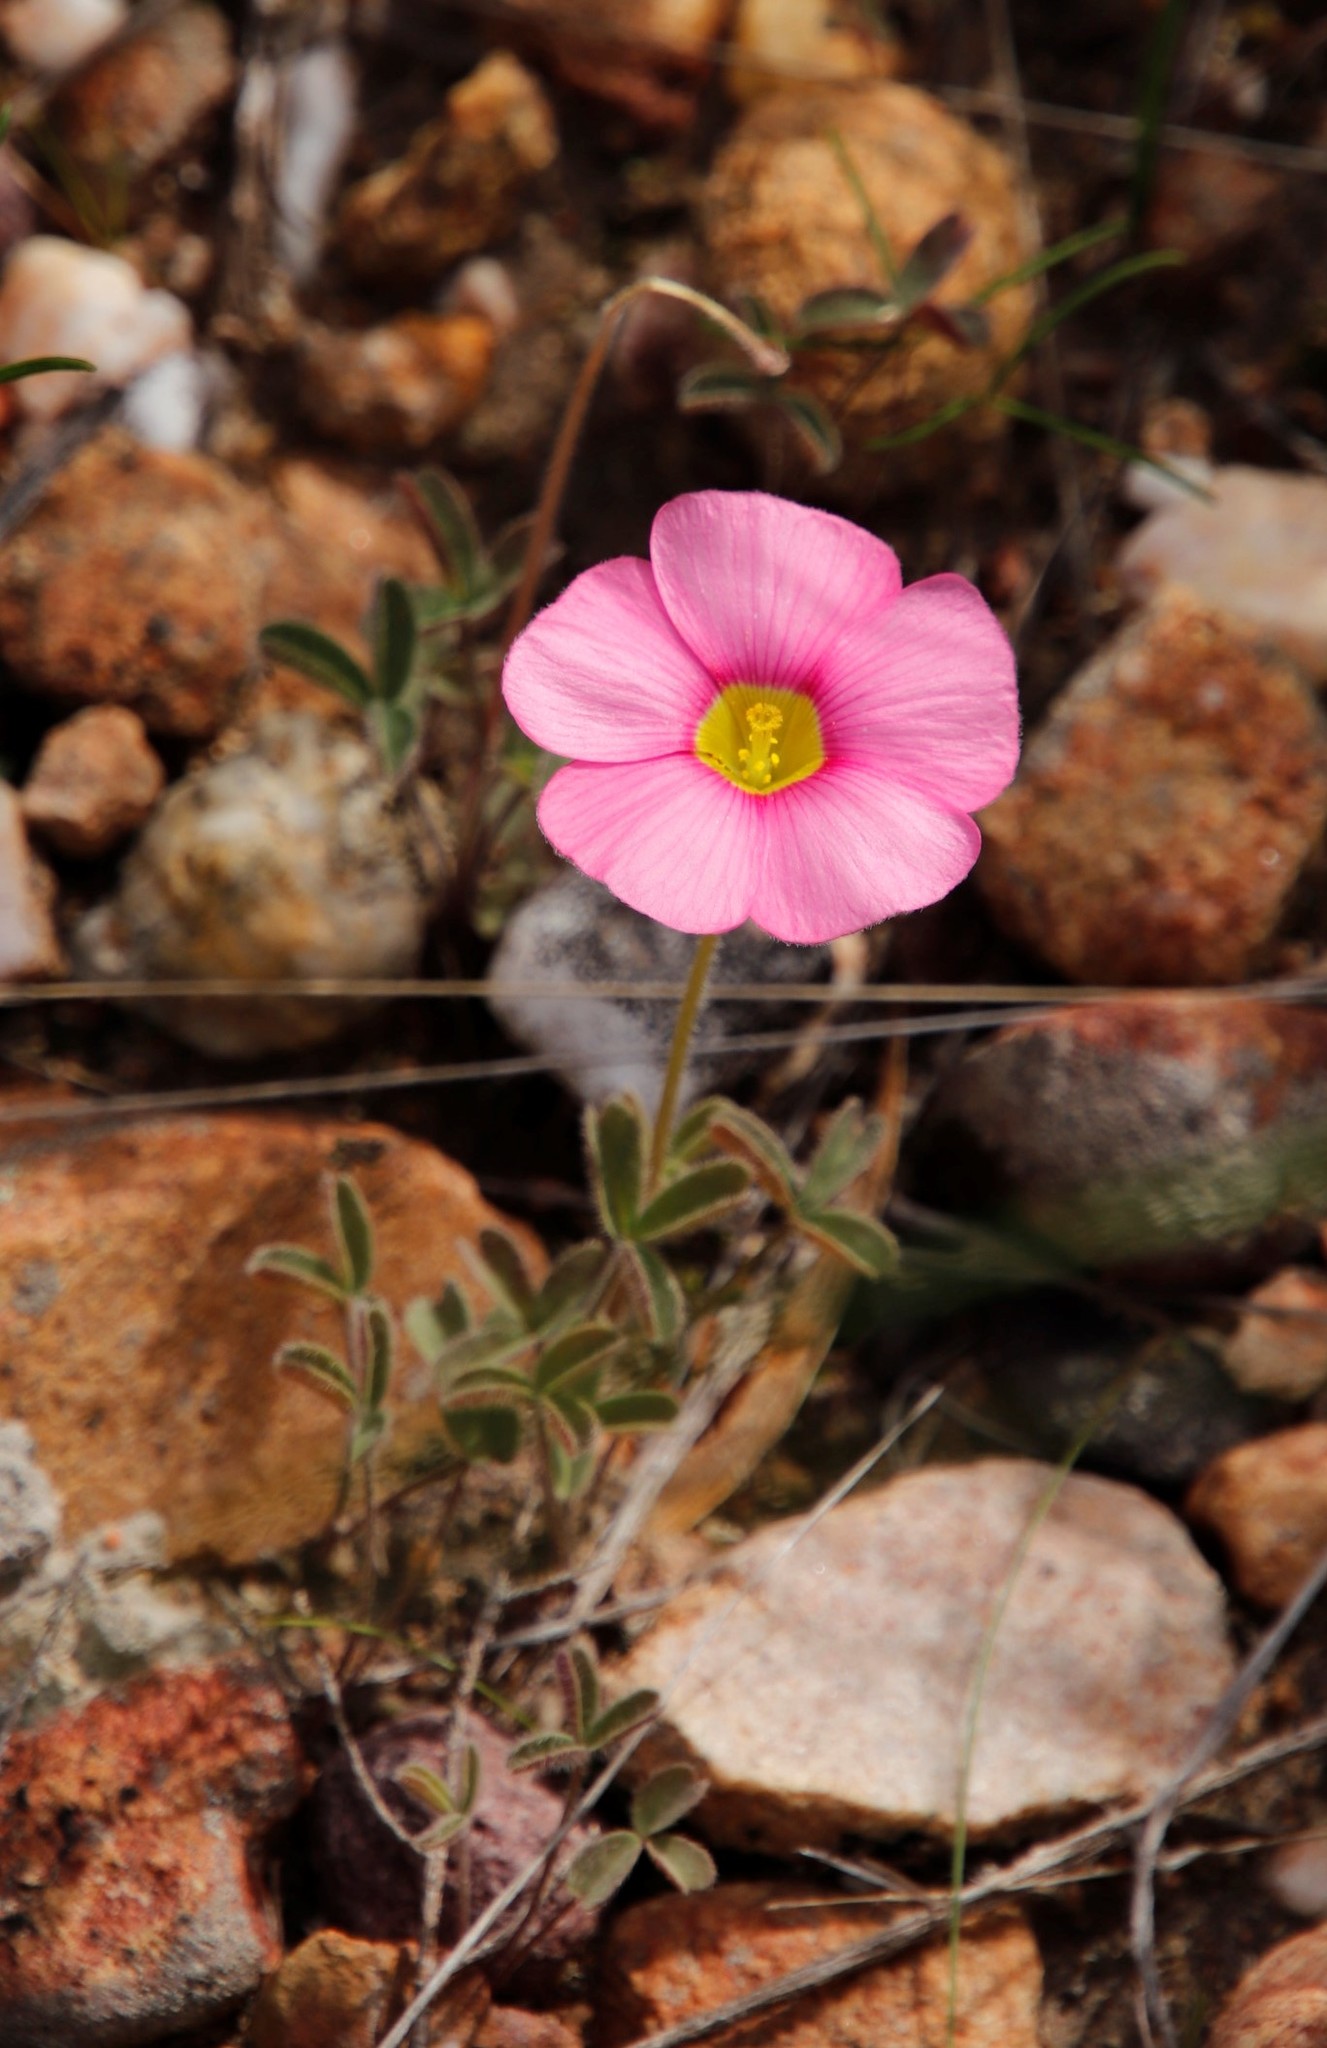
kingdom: Plantae
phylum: Tracheophyta
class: Magnoliopsida
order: Oxalidales
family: Oxalidaceae
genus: Oxalis
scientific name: Oxalis obtusa
